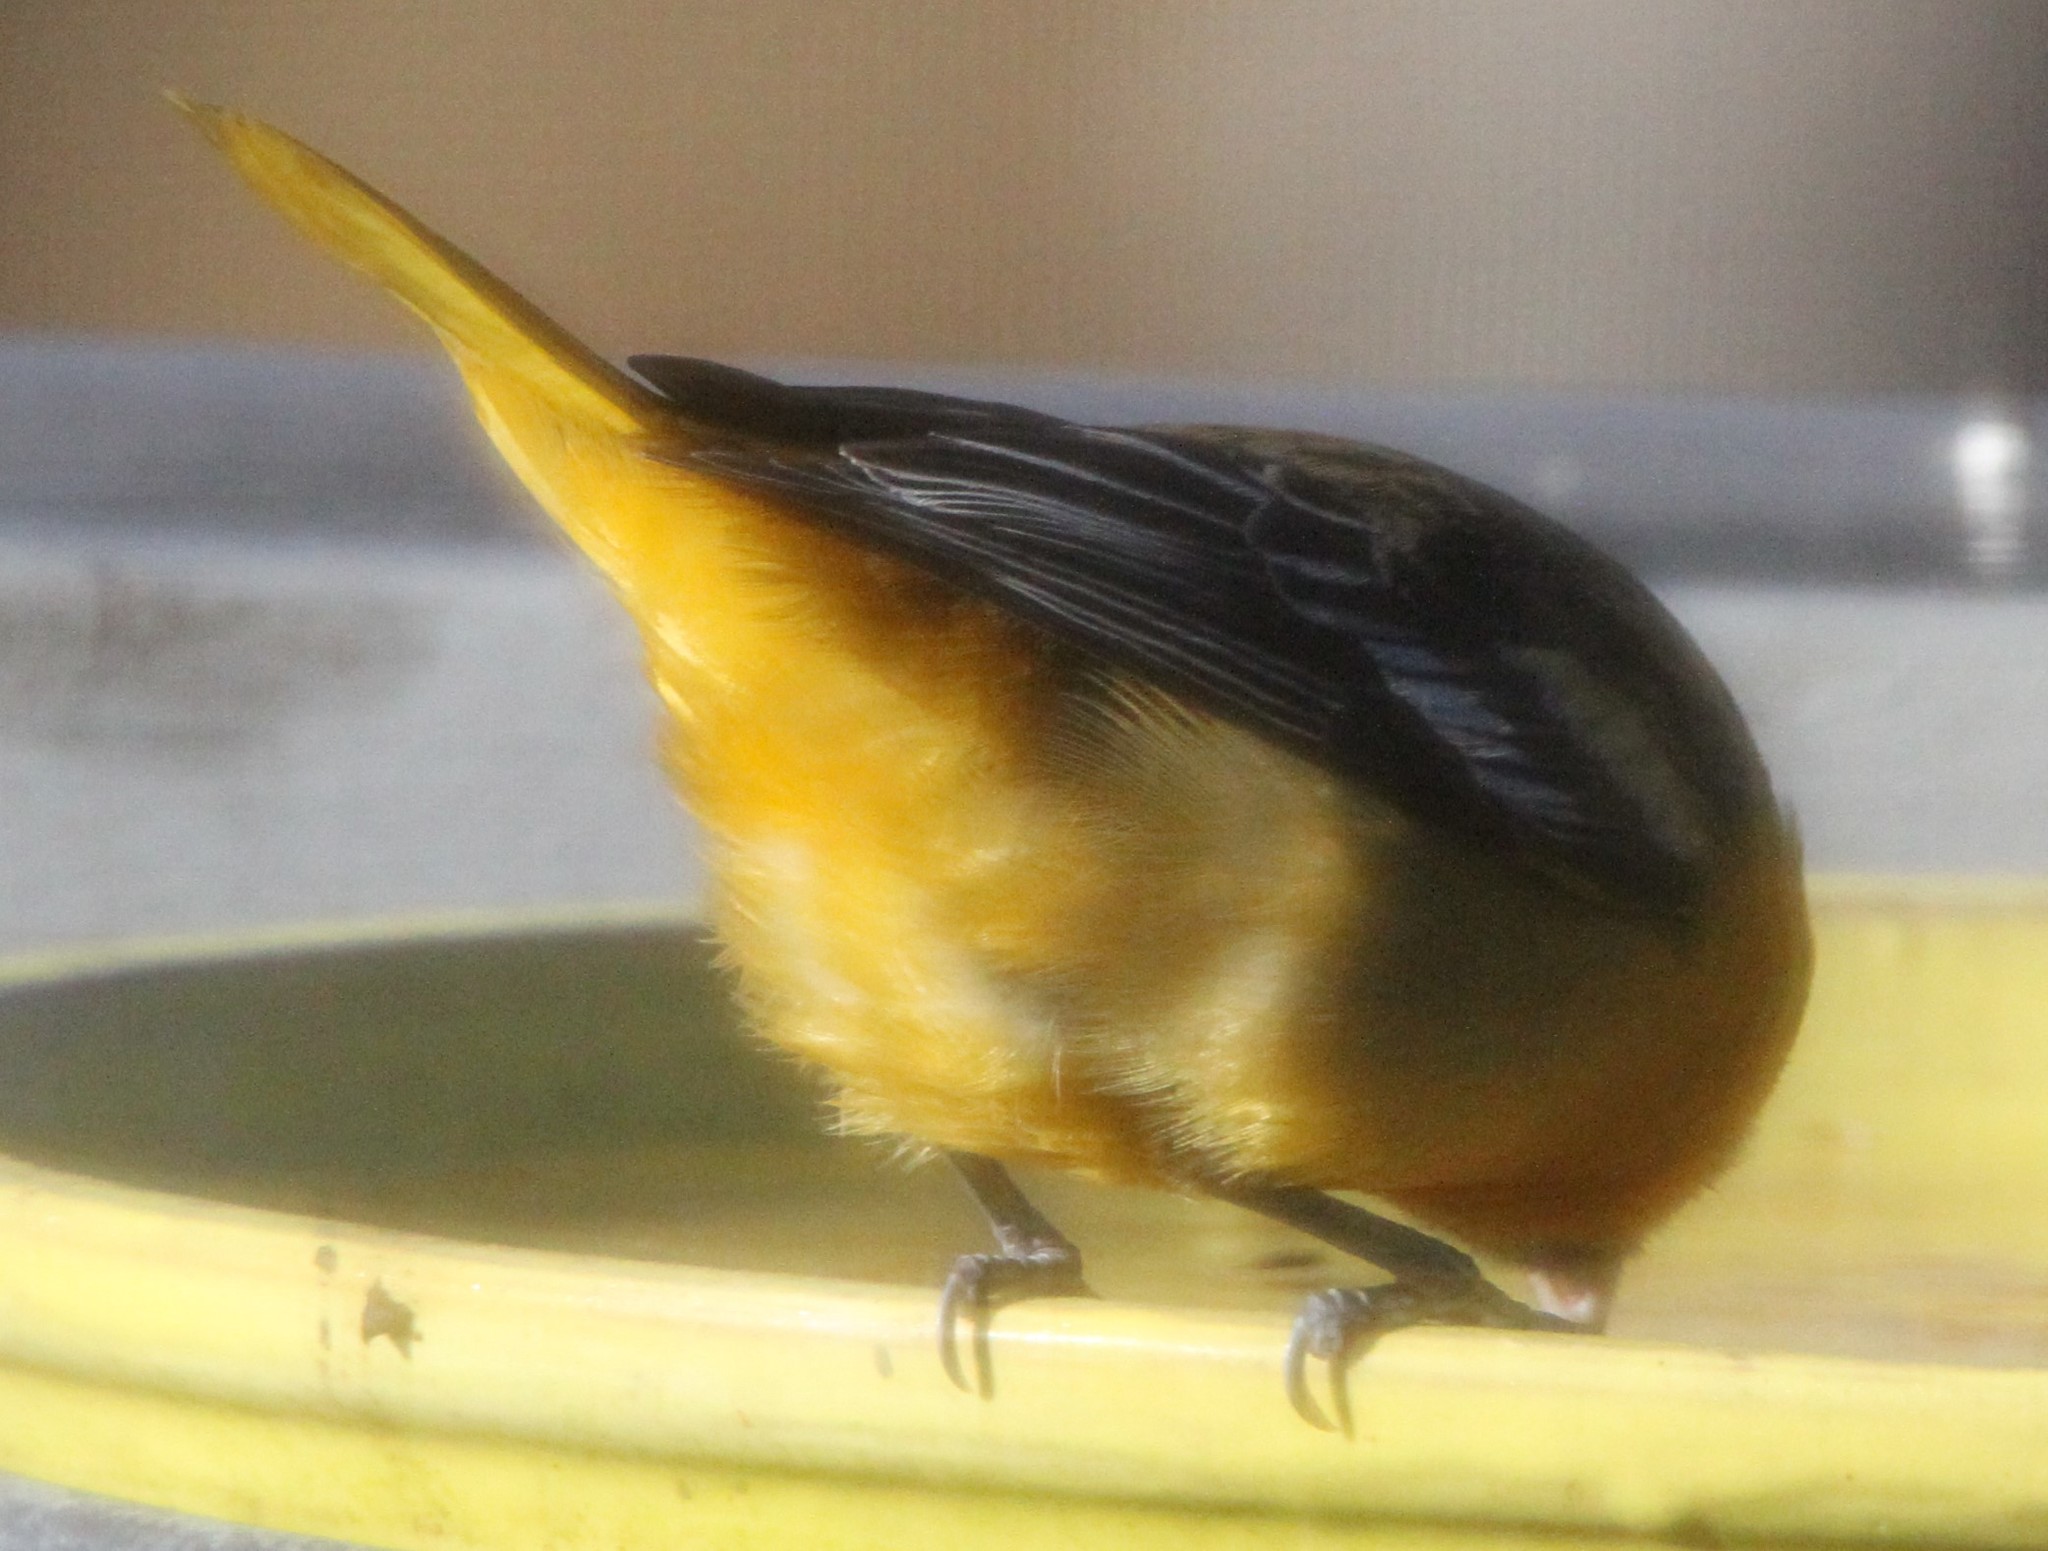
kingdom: Animalia
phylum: Chordata
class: Aves
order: Passeriformes
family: Icteridae
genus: Icterus
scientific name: Icterus galbula
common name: Baltimore oriole
